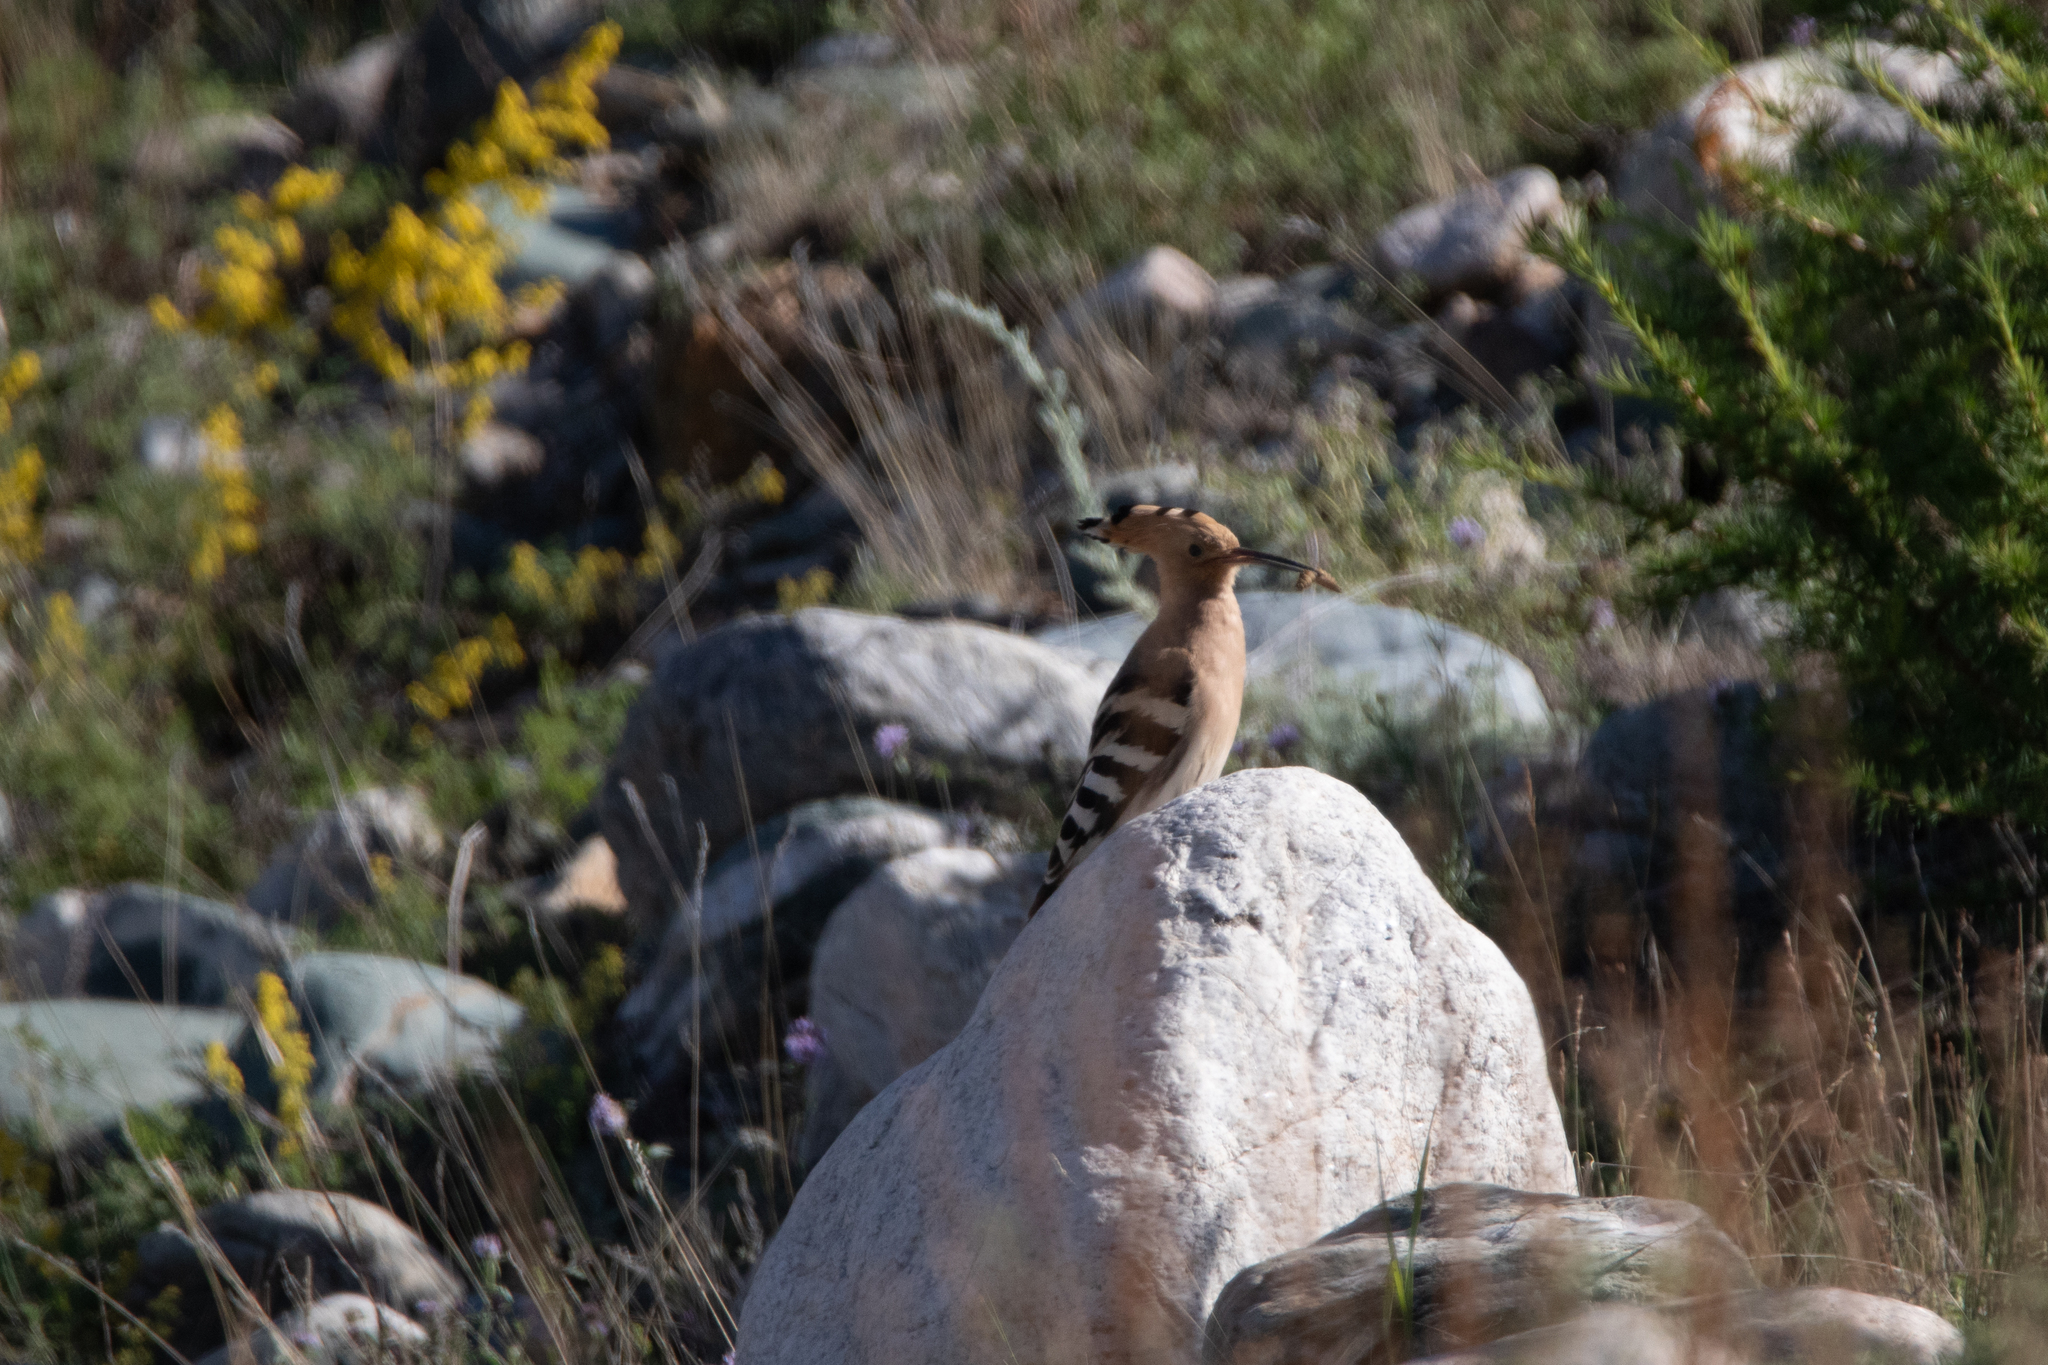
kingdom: Animalia
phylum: Chordata
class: Aves
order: Bucerotiformes
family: Upupidae
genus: Upupa
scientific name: Upupa epops
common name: Eurasian hoopoe
